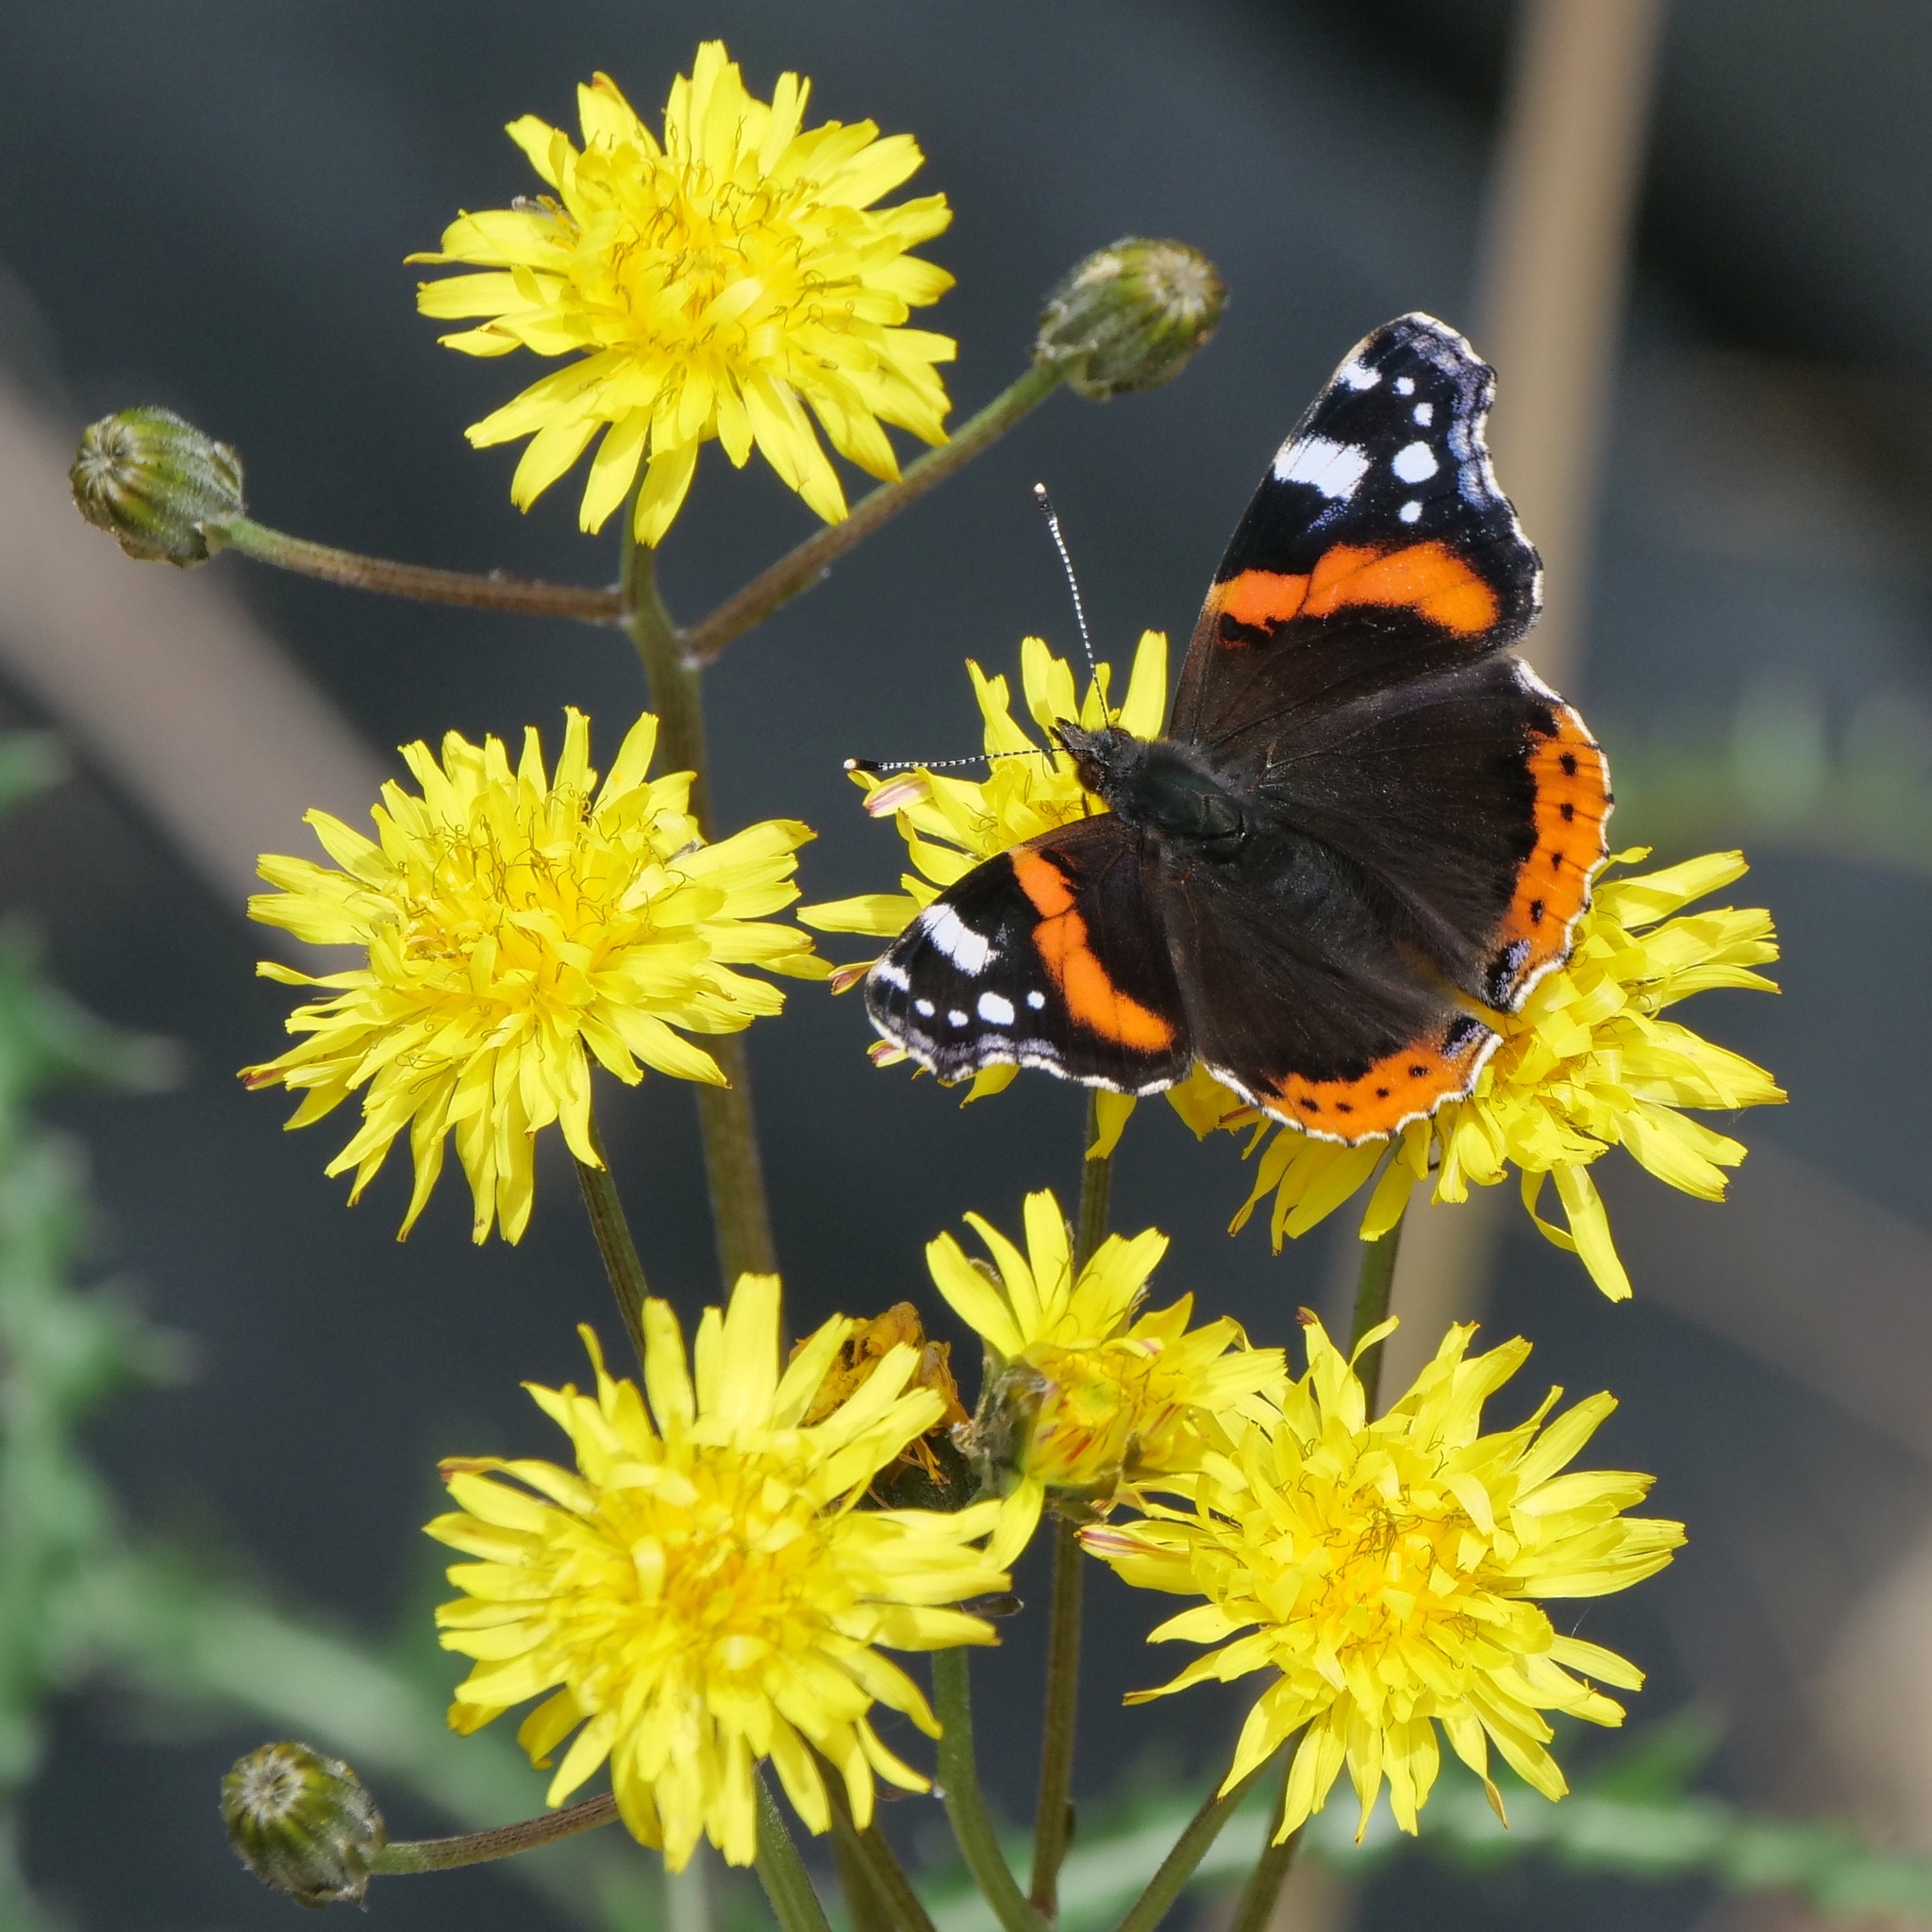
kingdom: Animalia
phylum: Arthropoda
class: Insecta
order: Lepidoptera
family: Nymphalidae
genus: Vanessa
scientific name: Vanessa atalanta
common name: Red admiral
